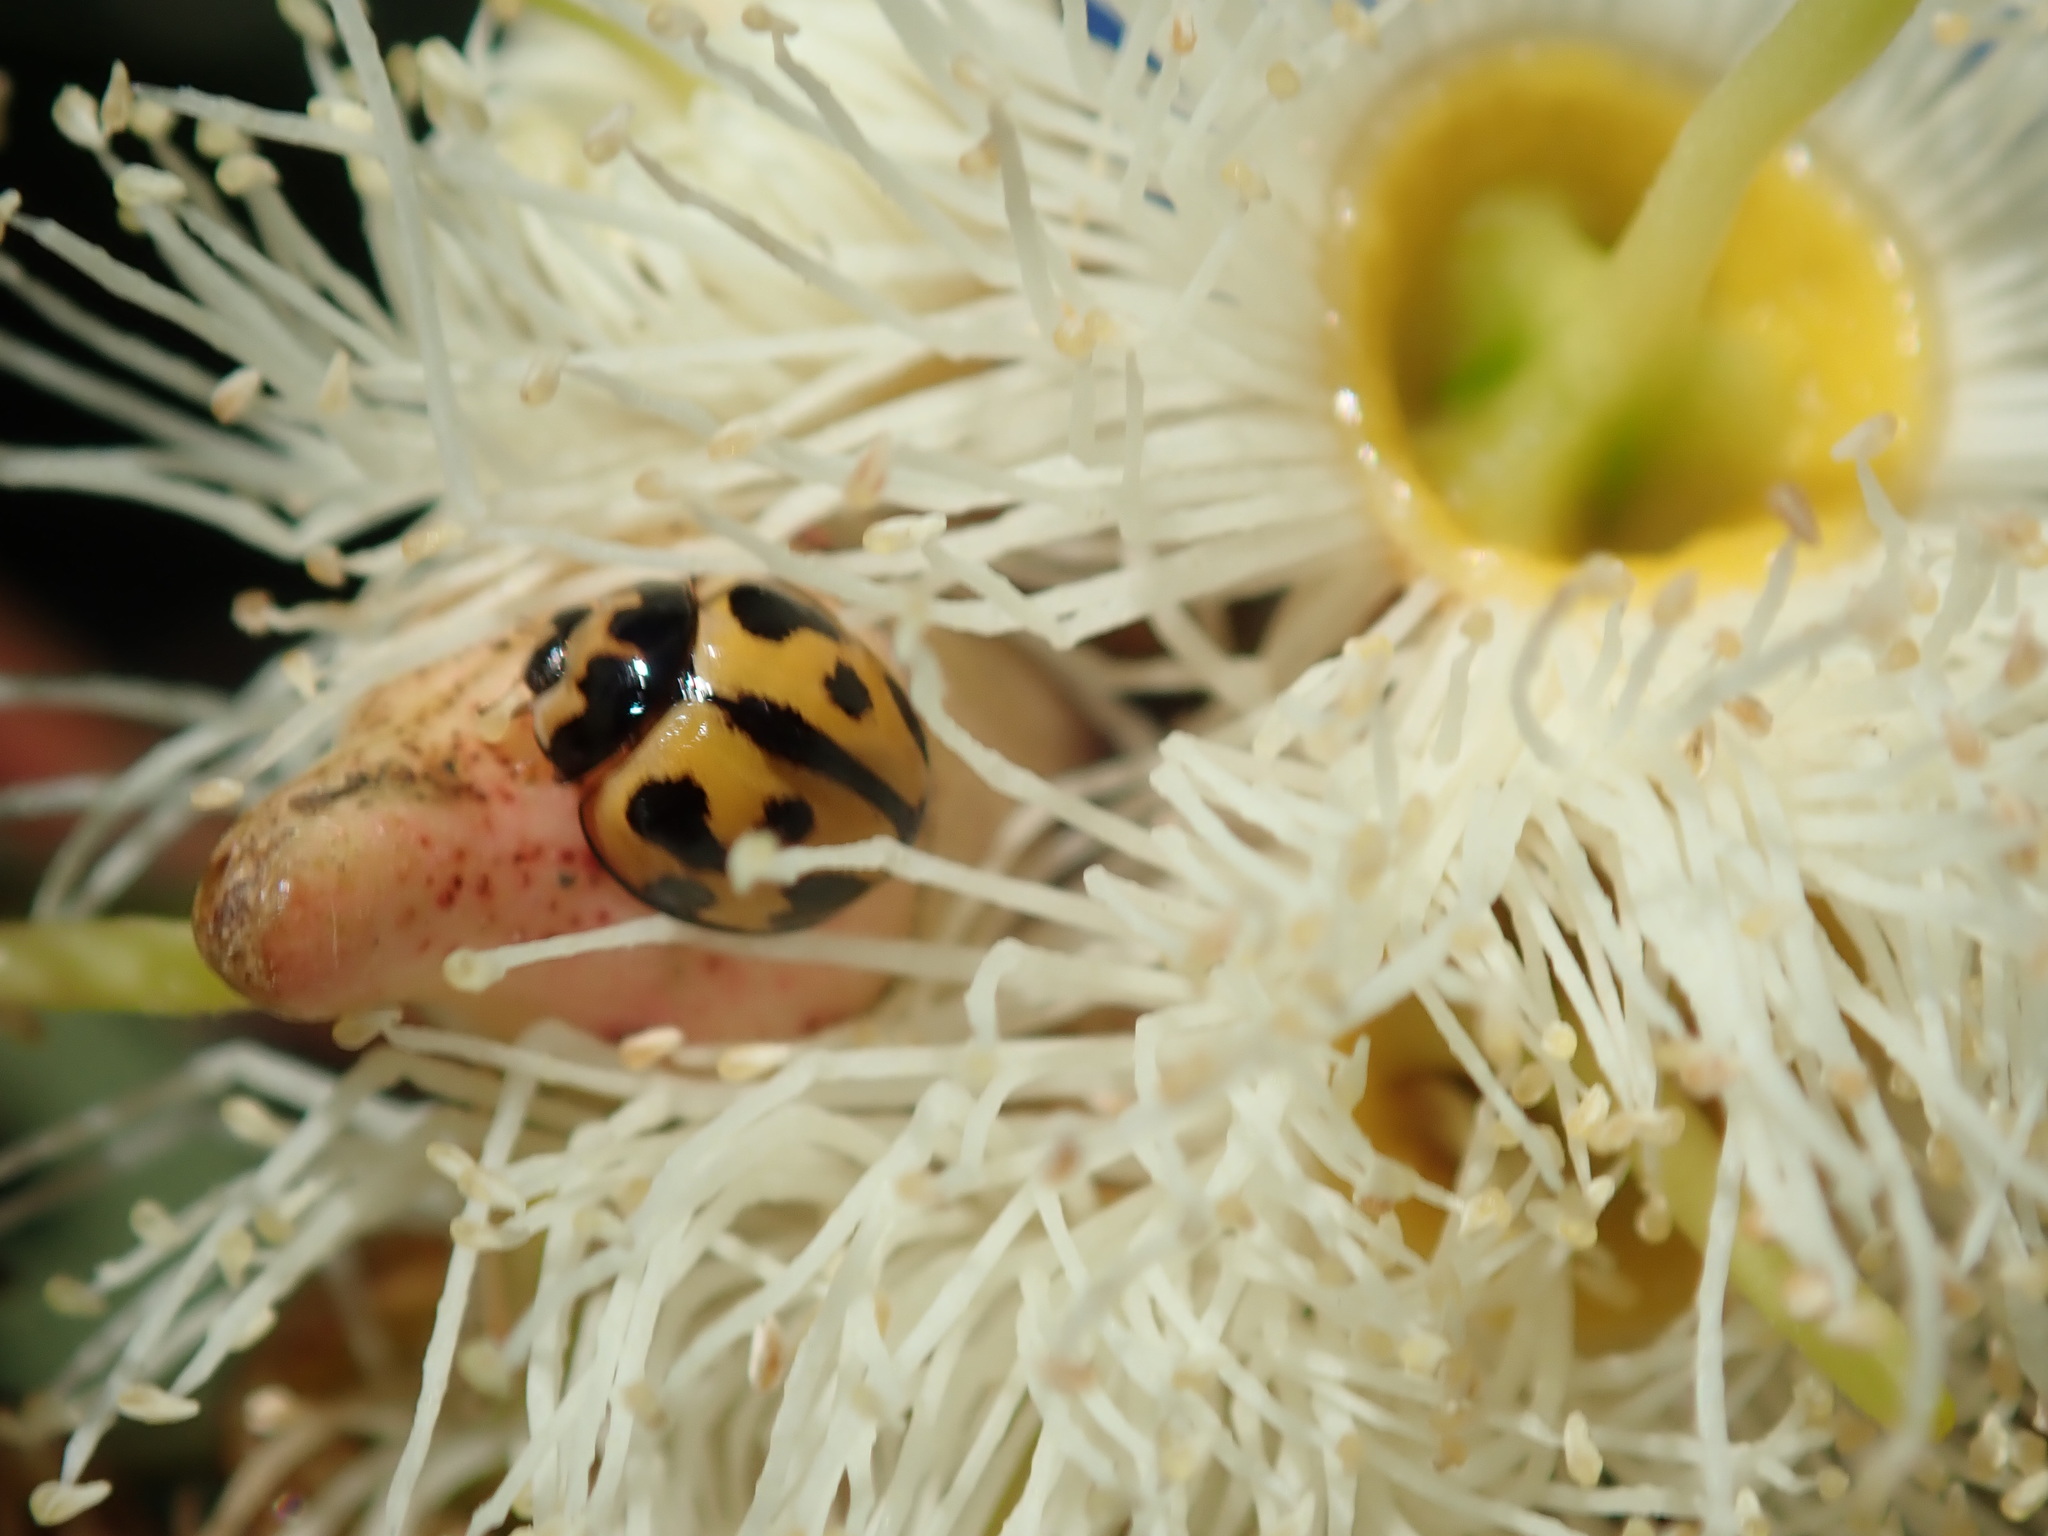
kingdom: Animalia
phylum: Arthropoda
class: Insecta
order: Coleoptera
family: Coccinellidae
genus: Coelophora
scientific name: Coelophora inaequalis
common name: Common australian lady beetle
